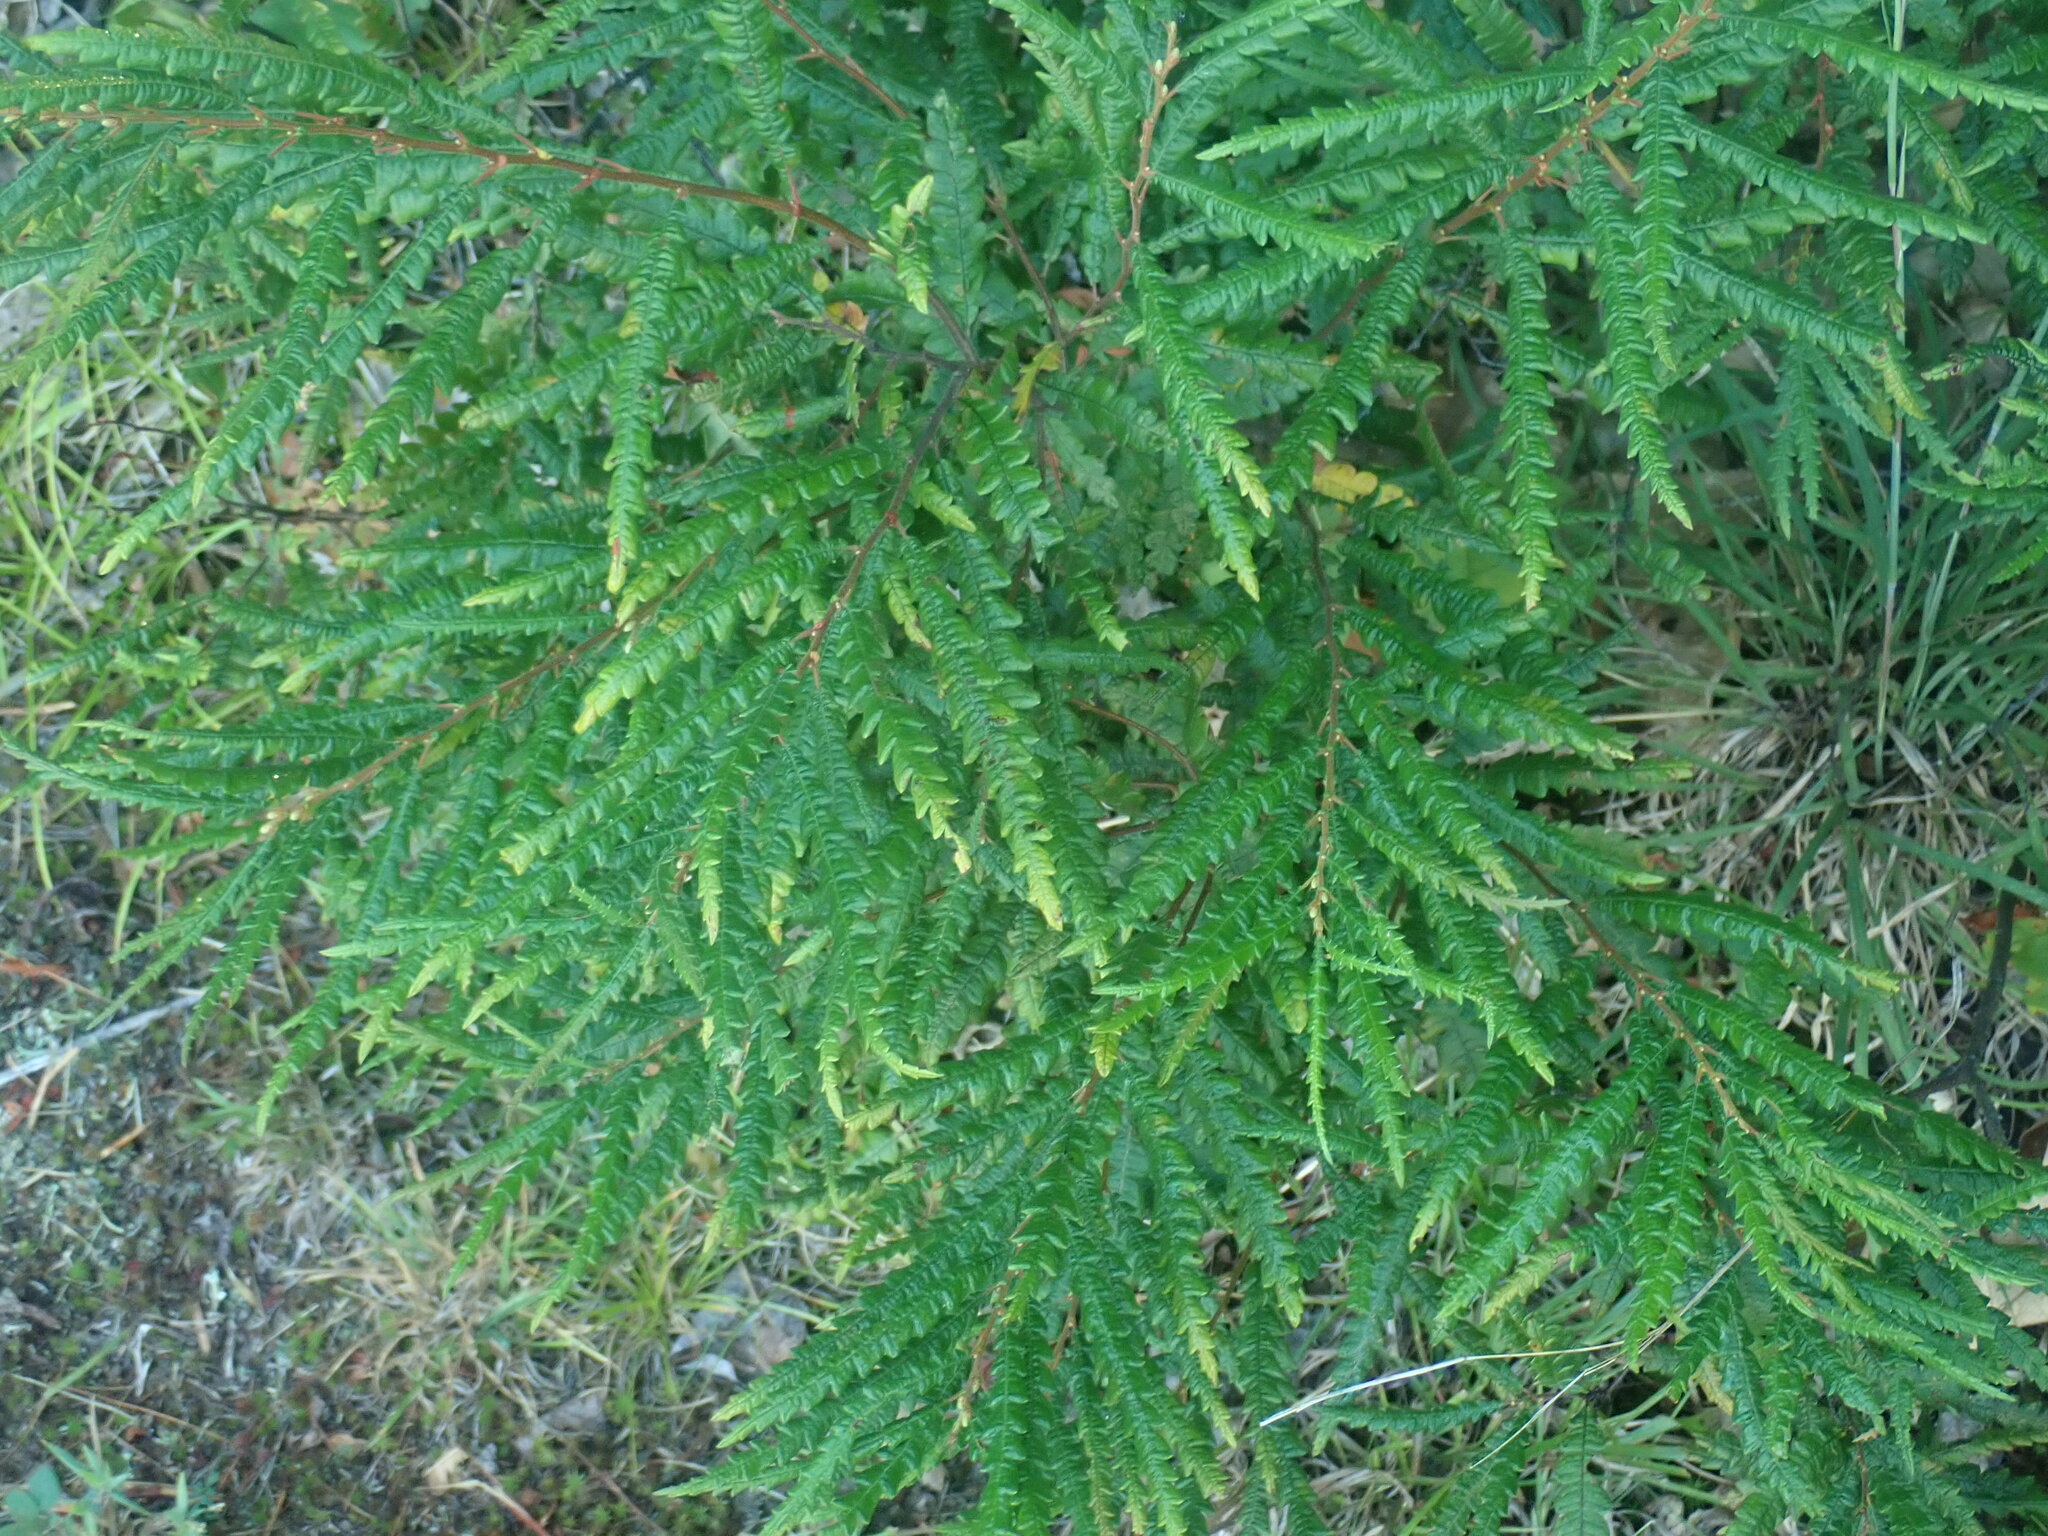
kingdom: Plantae
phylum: Tracheophyta
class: Magnoliopsida
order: Fagales
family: Myricaceae
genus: Comptonia
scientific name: Comptonia peregrina
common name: Sweet-fern
